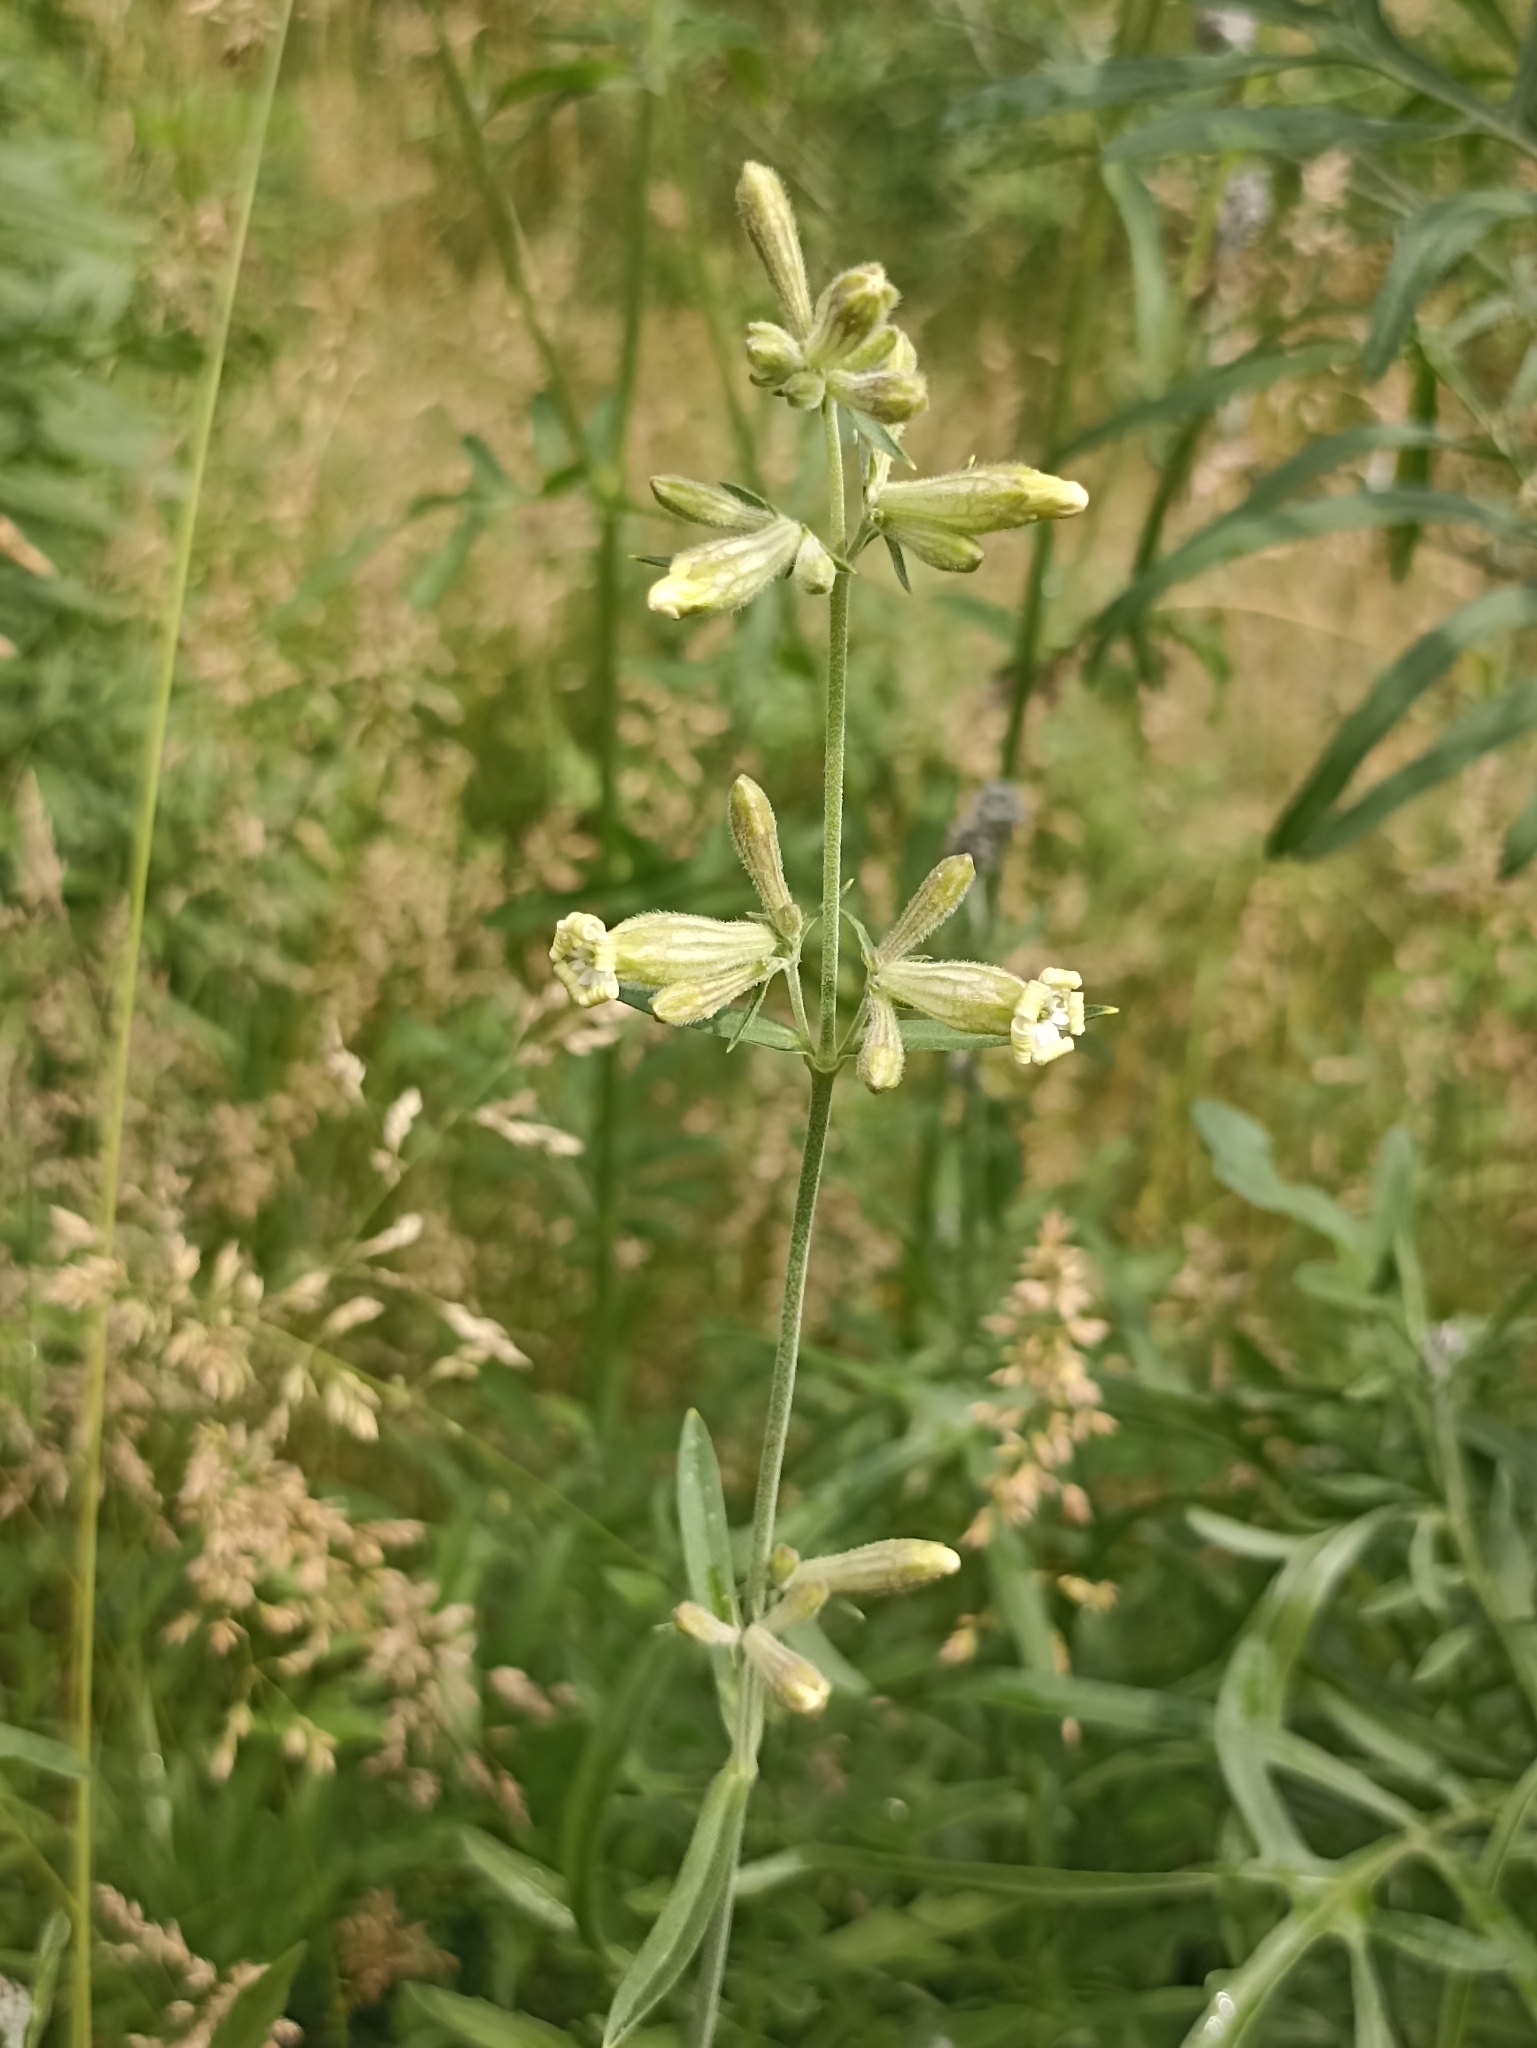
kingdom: Plantae
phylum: Tracheophyta
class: Magnoliopsida
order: Caryophyllales
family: Caryophyllaceae
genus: Silene
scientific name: Silene amoena
